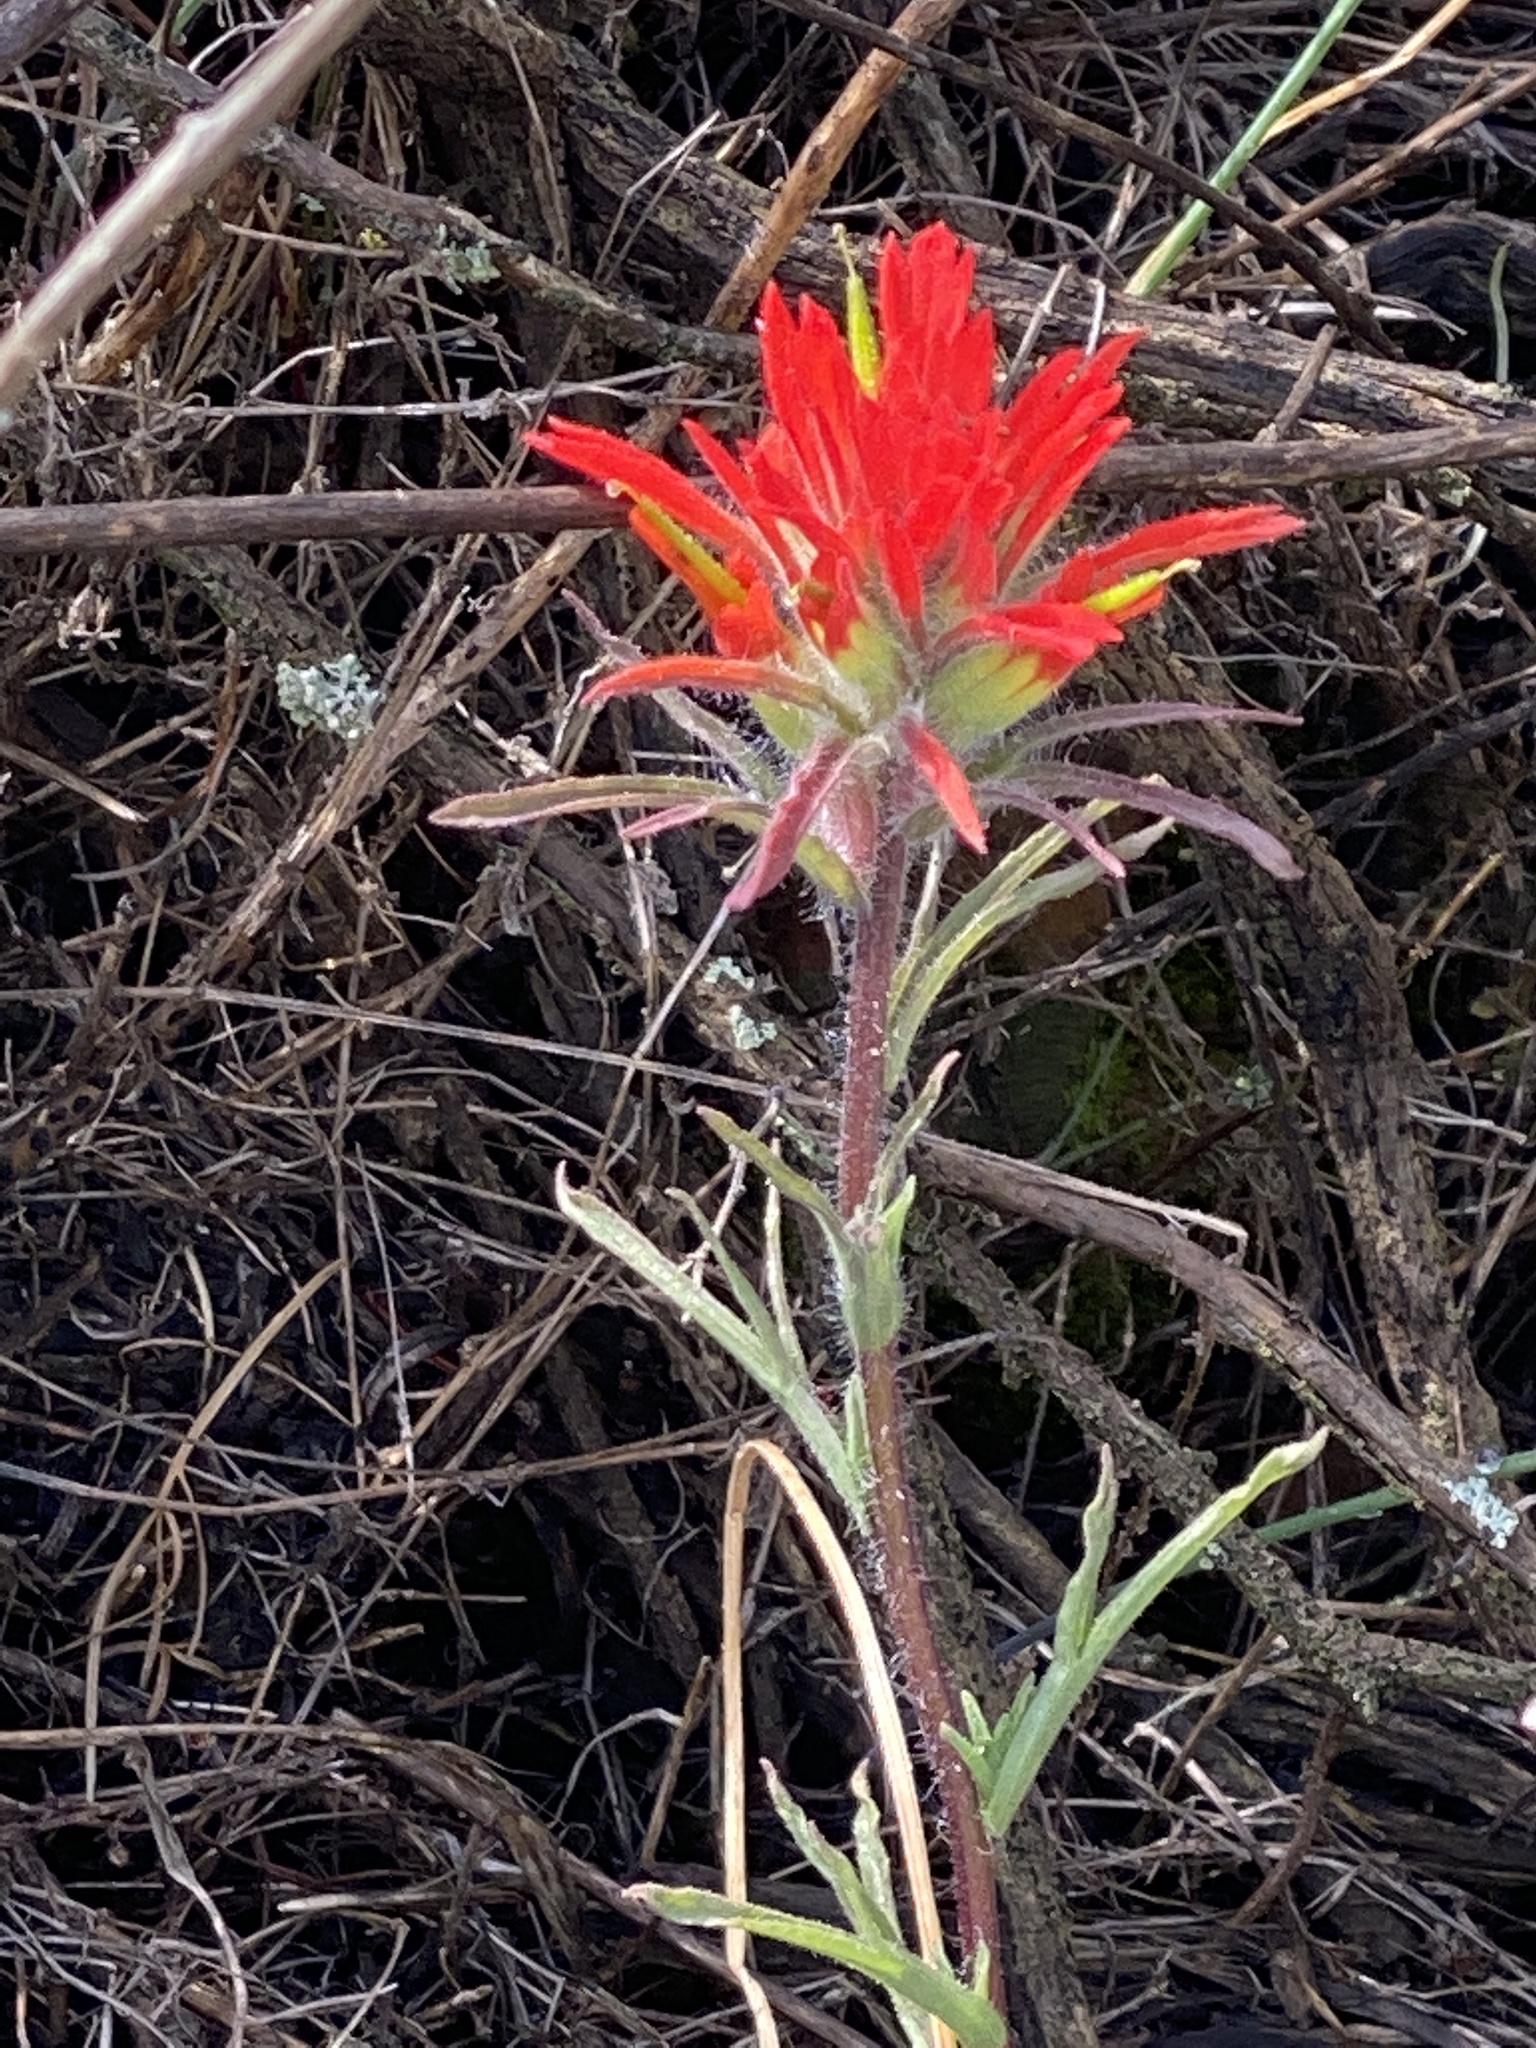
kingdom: Plantae
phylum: Tracheophyta
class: Magnoliopsida
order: Lamiales
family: Orobanchaceae
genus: Castilleja
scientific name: Castilleja affinis
